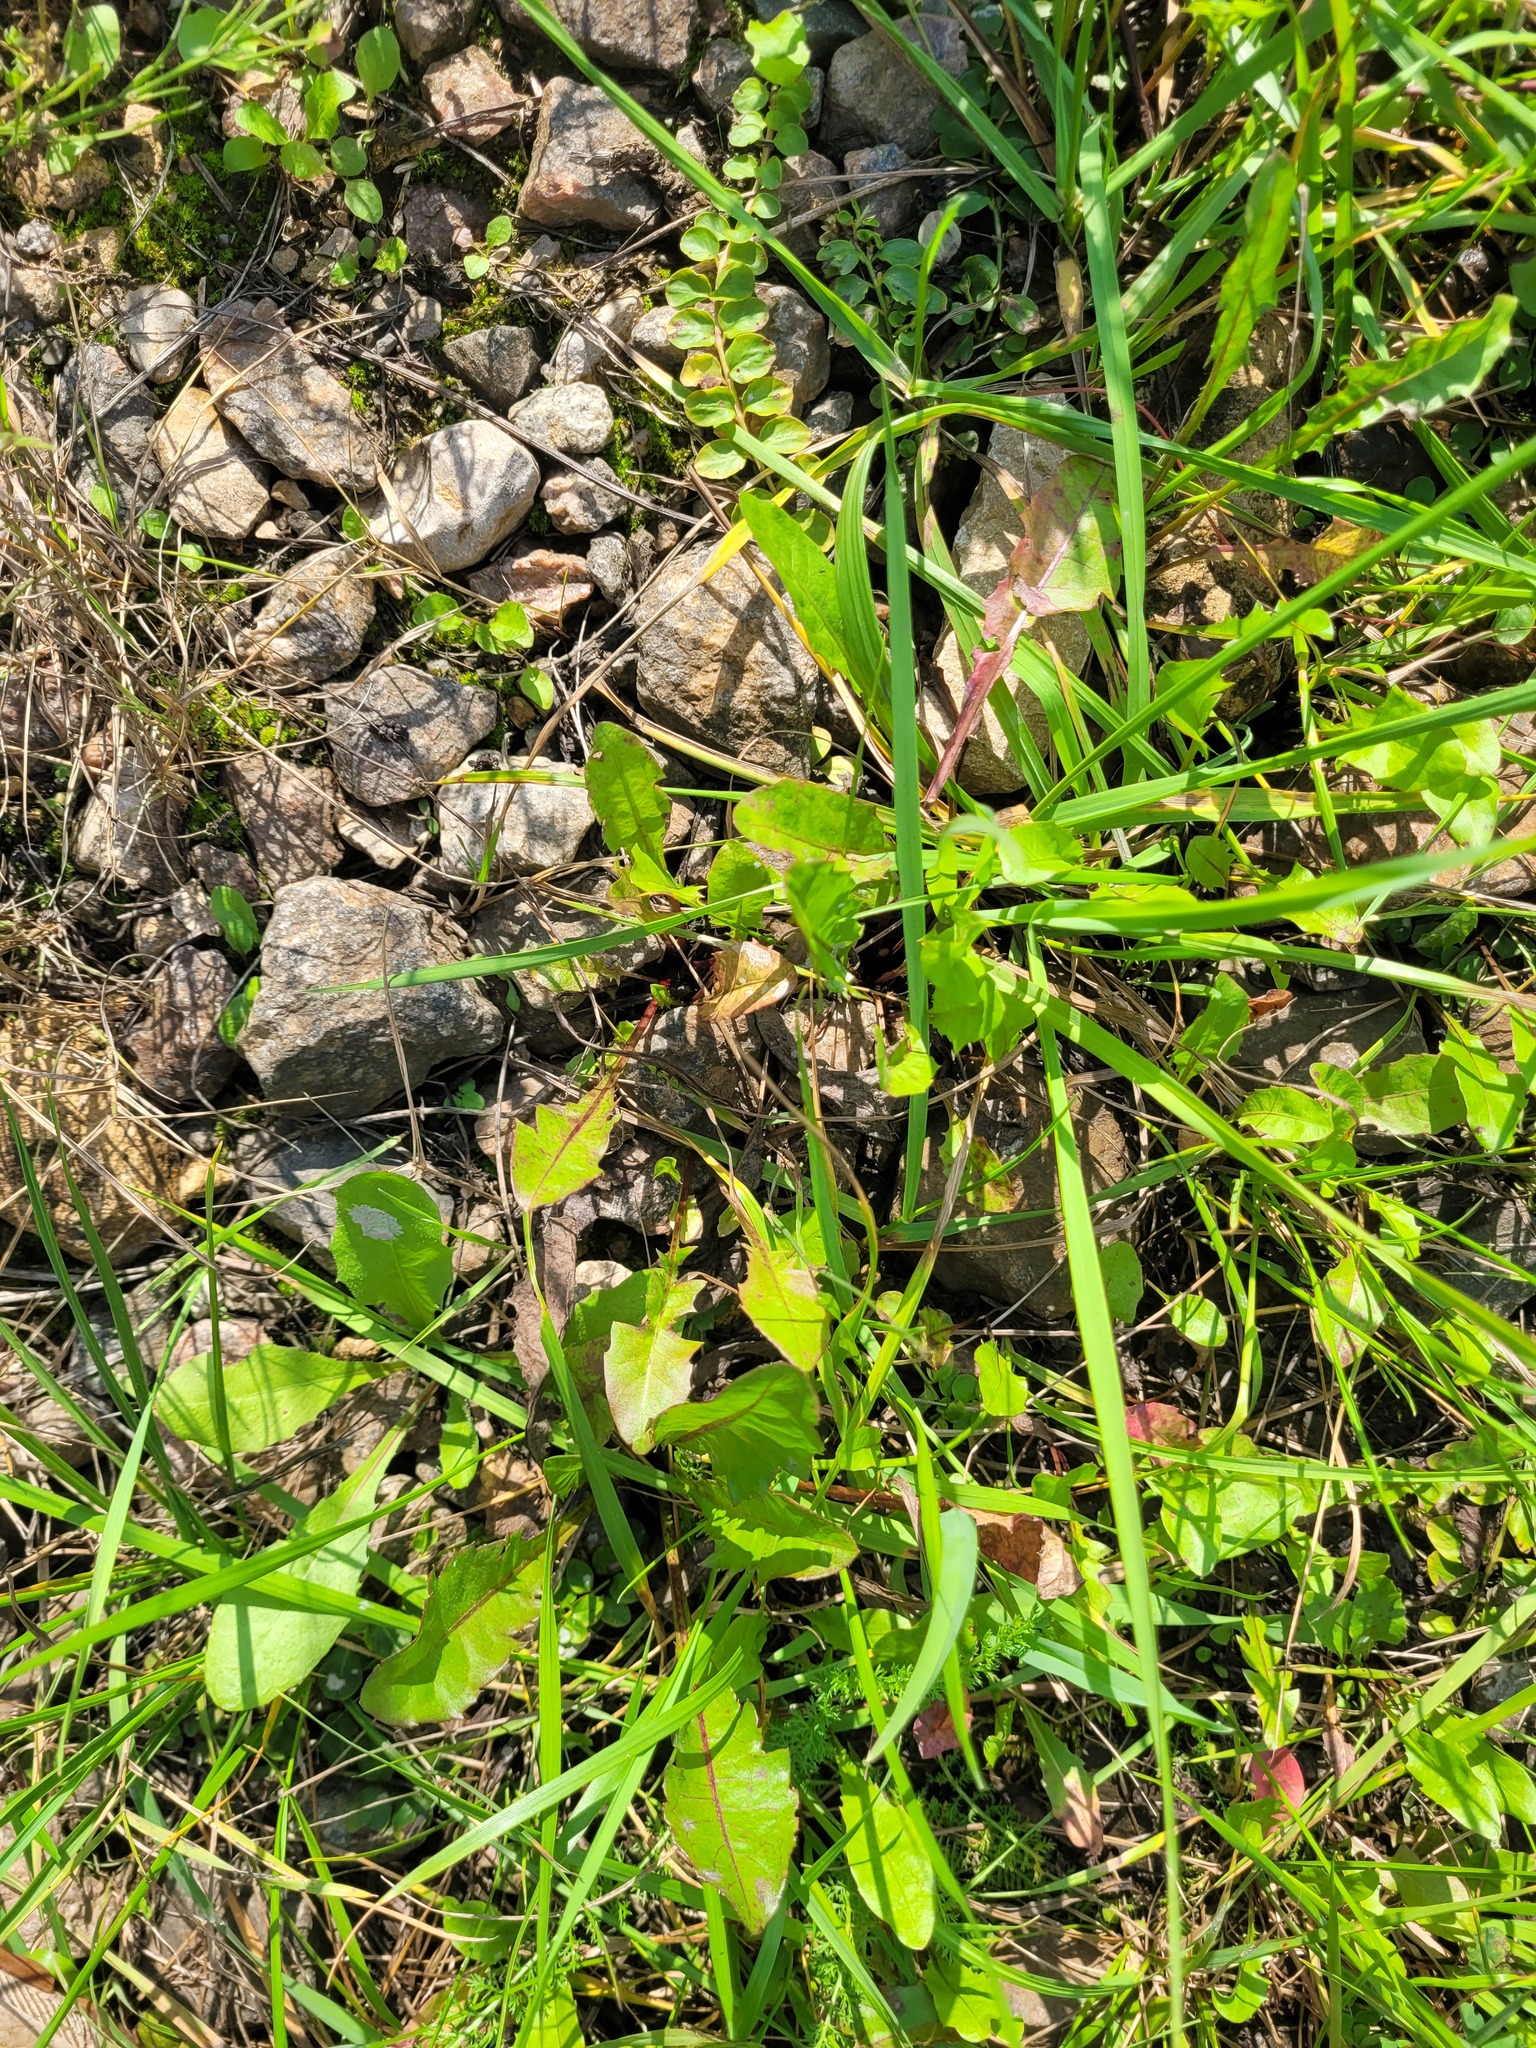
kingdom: Plantae
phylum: Tracheophyta
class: Magnoliopsida
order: Asterales
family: Asteraceae
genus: Taraxacum
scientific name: Taraxacum officinale
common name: Common dandelion
